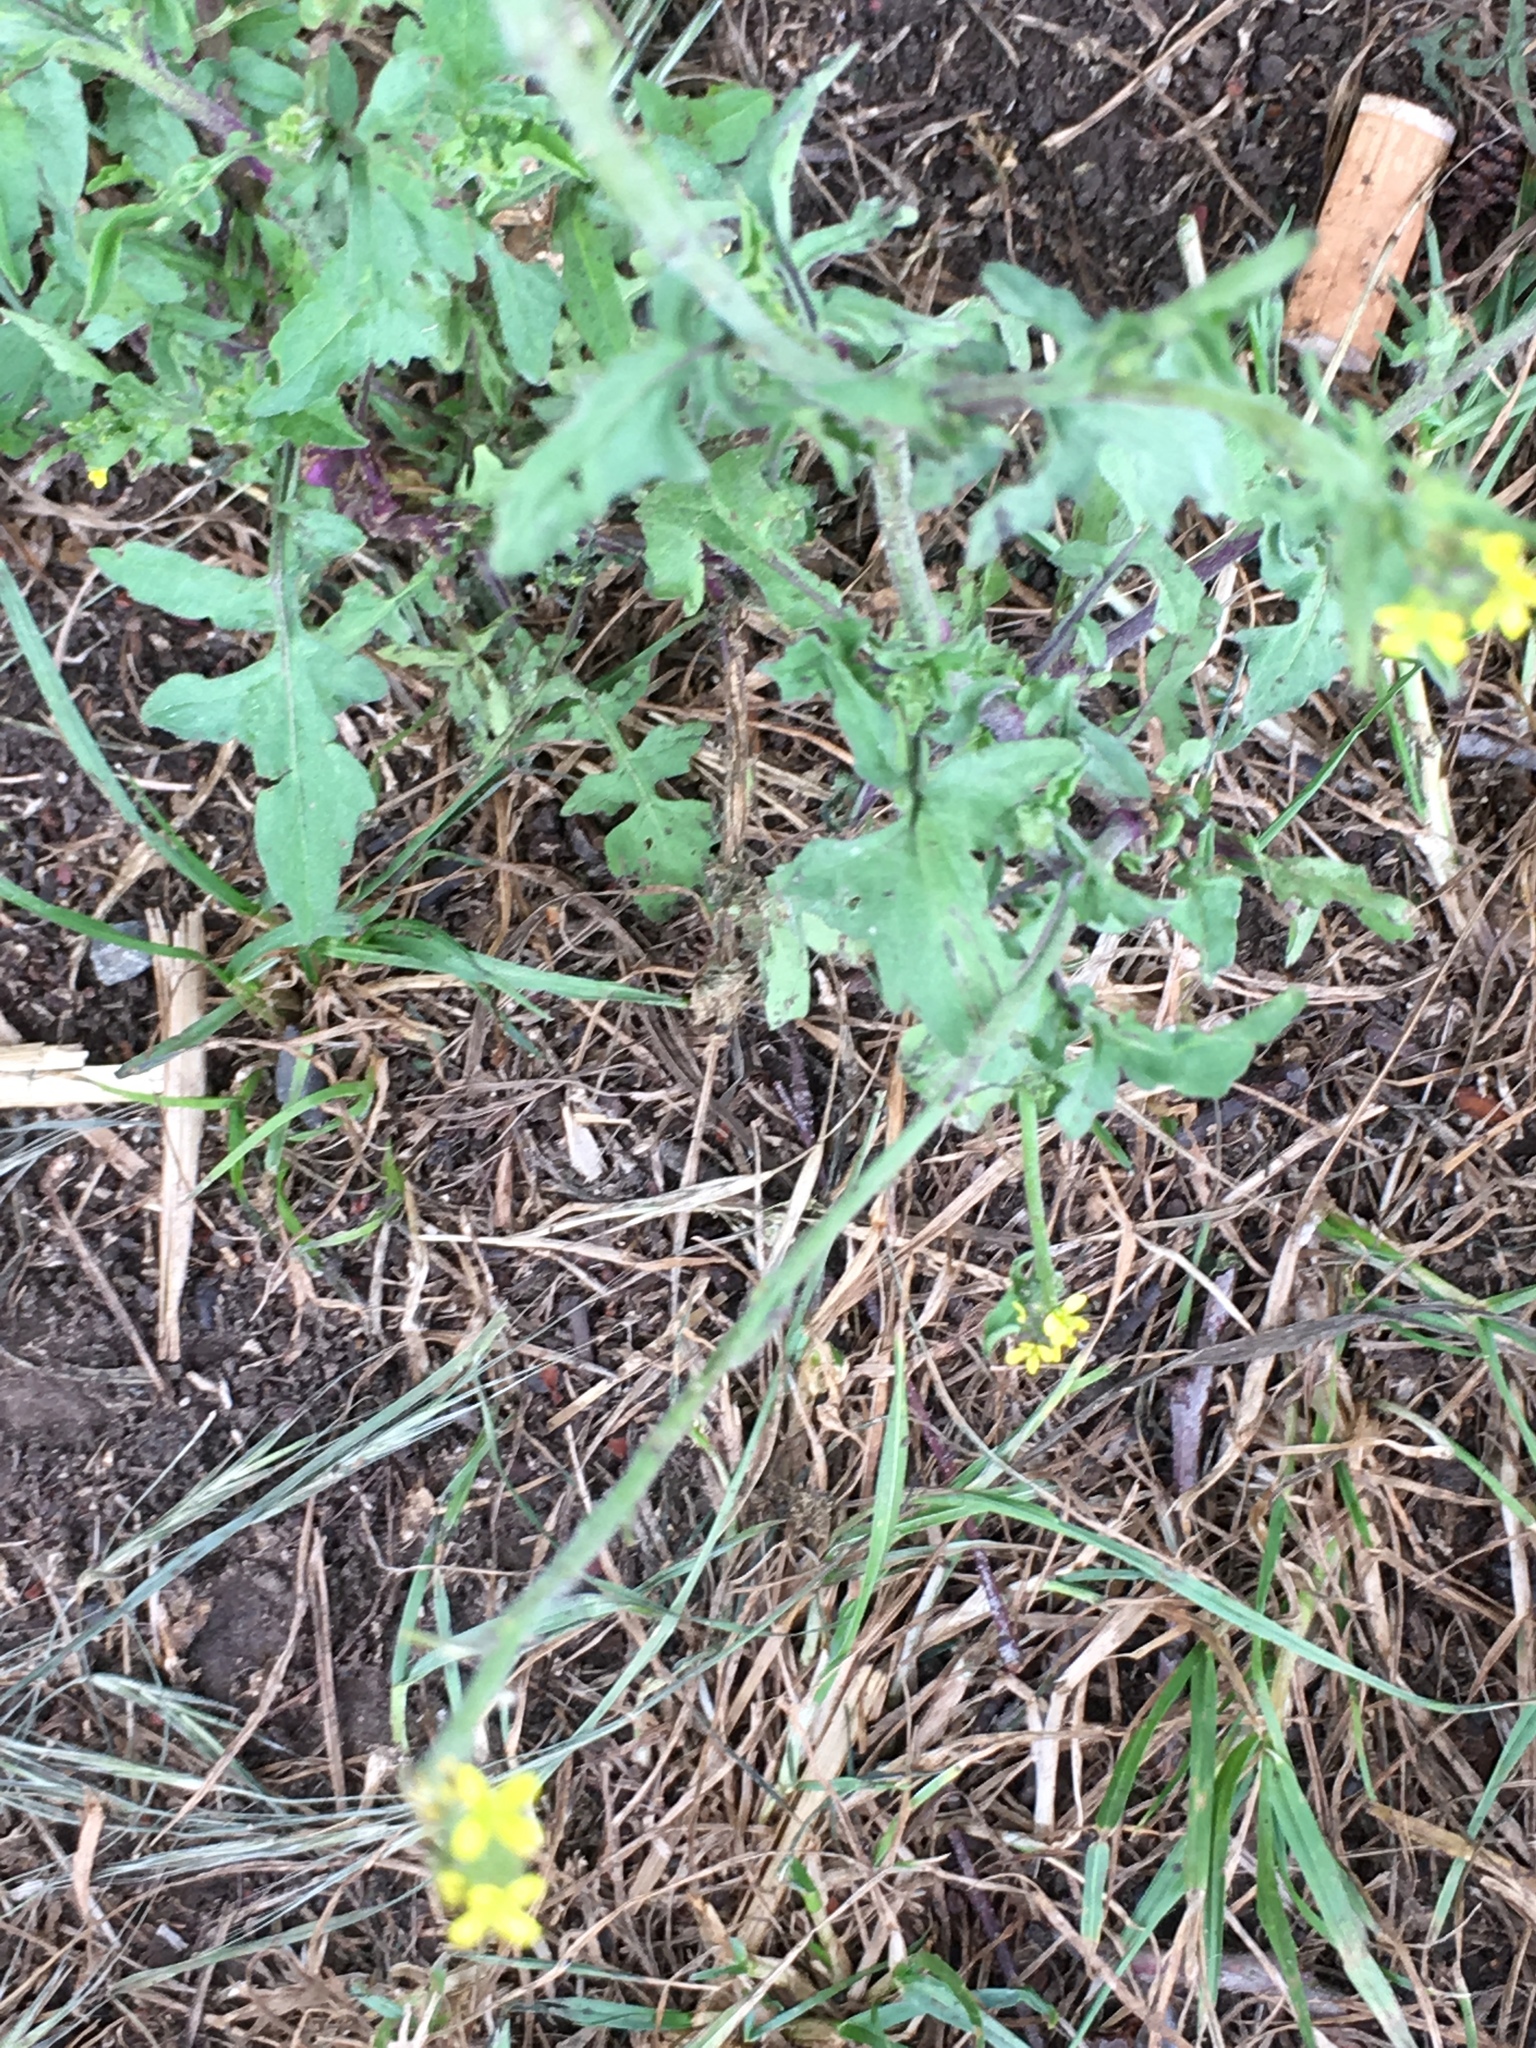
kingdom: Plantae
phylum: Tracheophyta
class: Magnoliopsida
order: Brassicales
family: Brassicaceae
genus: Sisymbrium
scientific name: Sisymbrium officinale
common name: Hedge mustard
